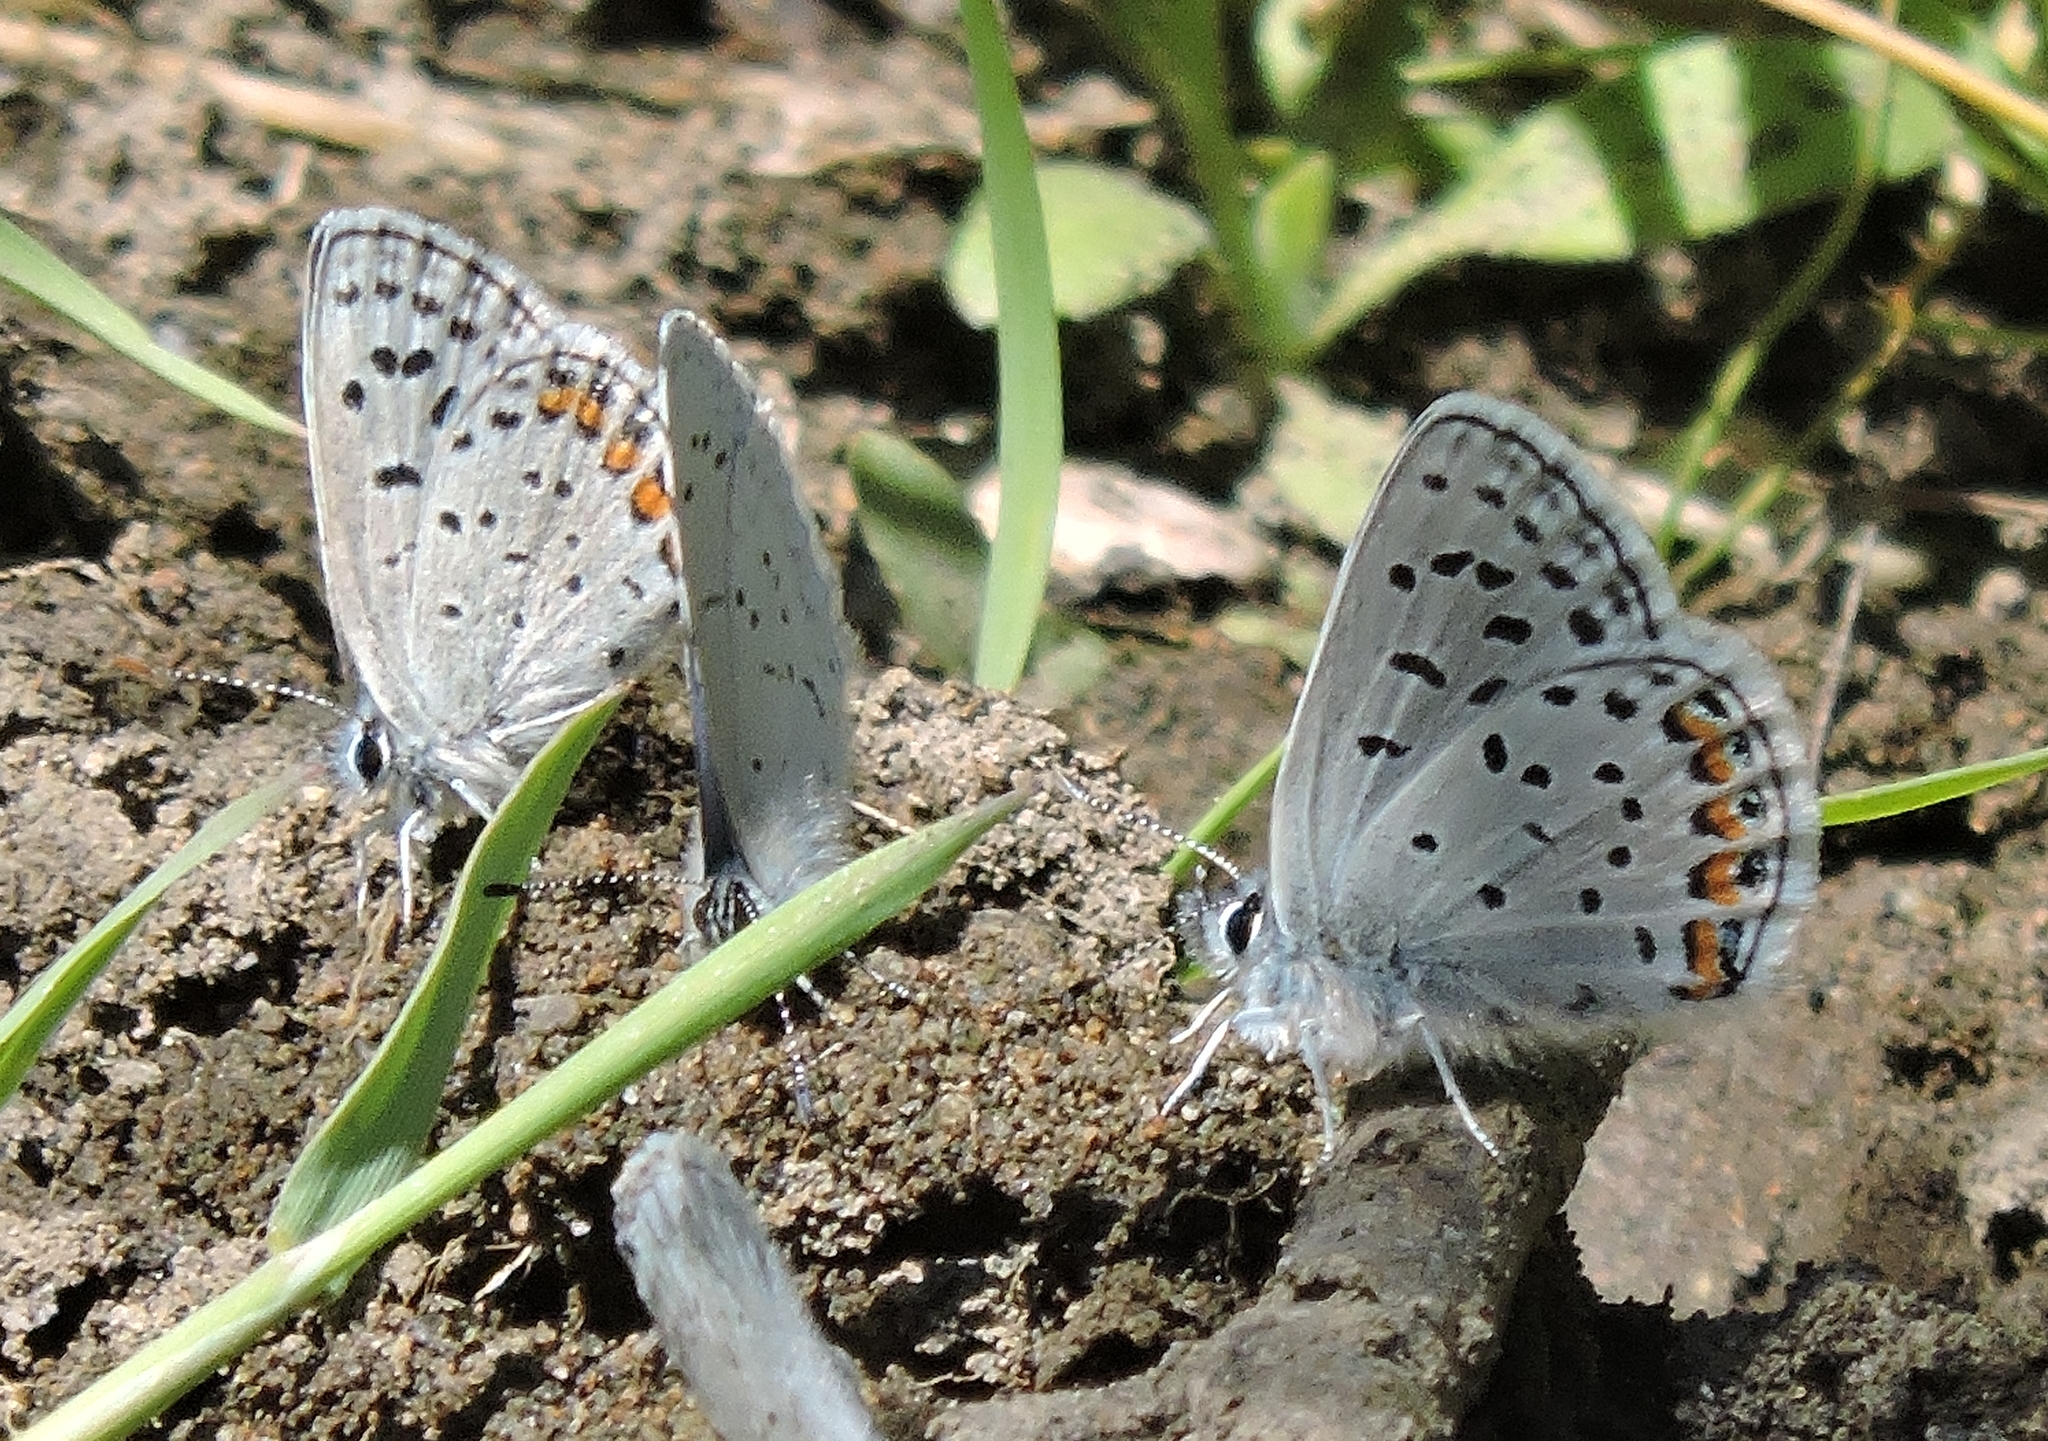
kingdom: Animalia
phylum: Arthropoda
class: Insecta
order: Lepidoptera
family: Lycaenidae
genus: Icaricia
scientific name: Icaricia acmon
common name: Acmon blue
